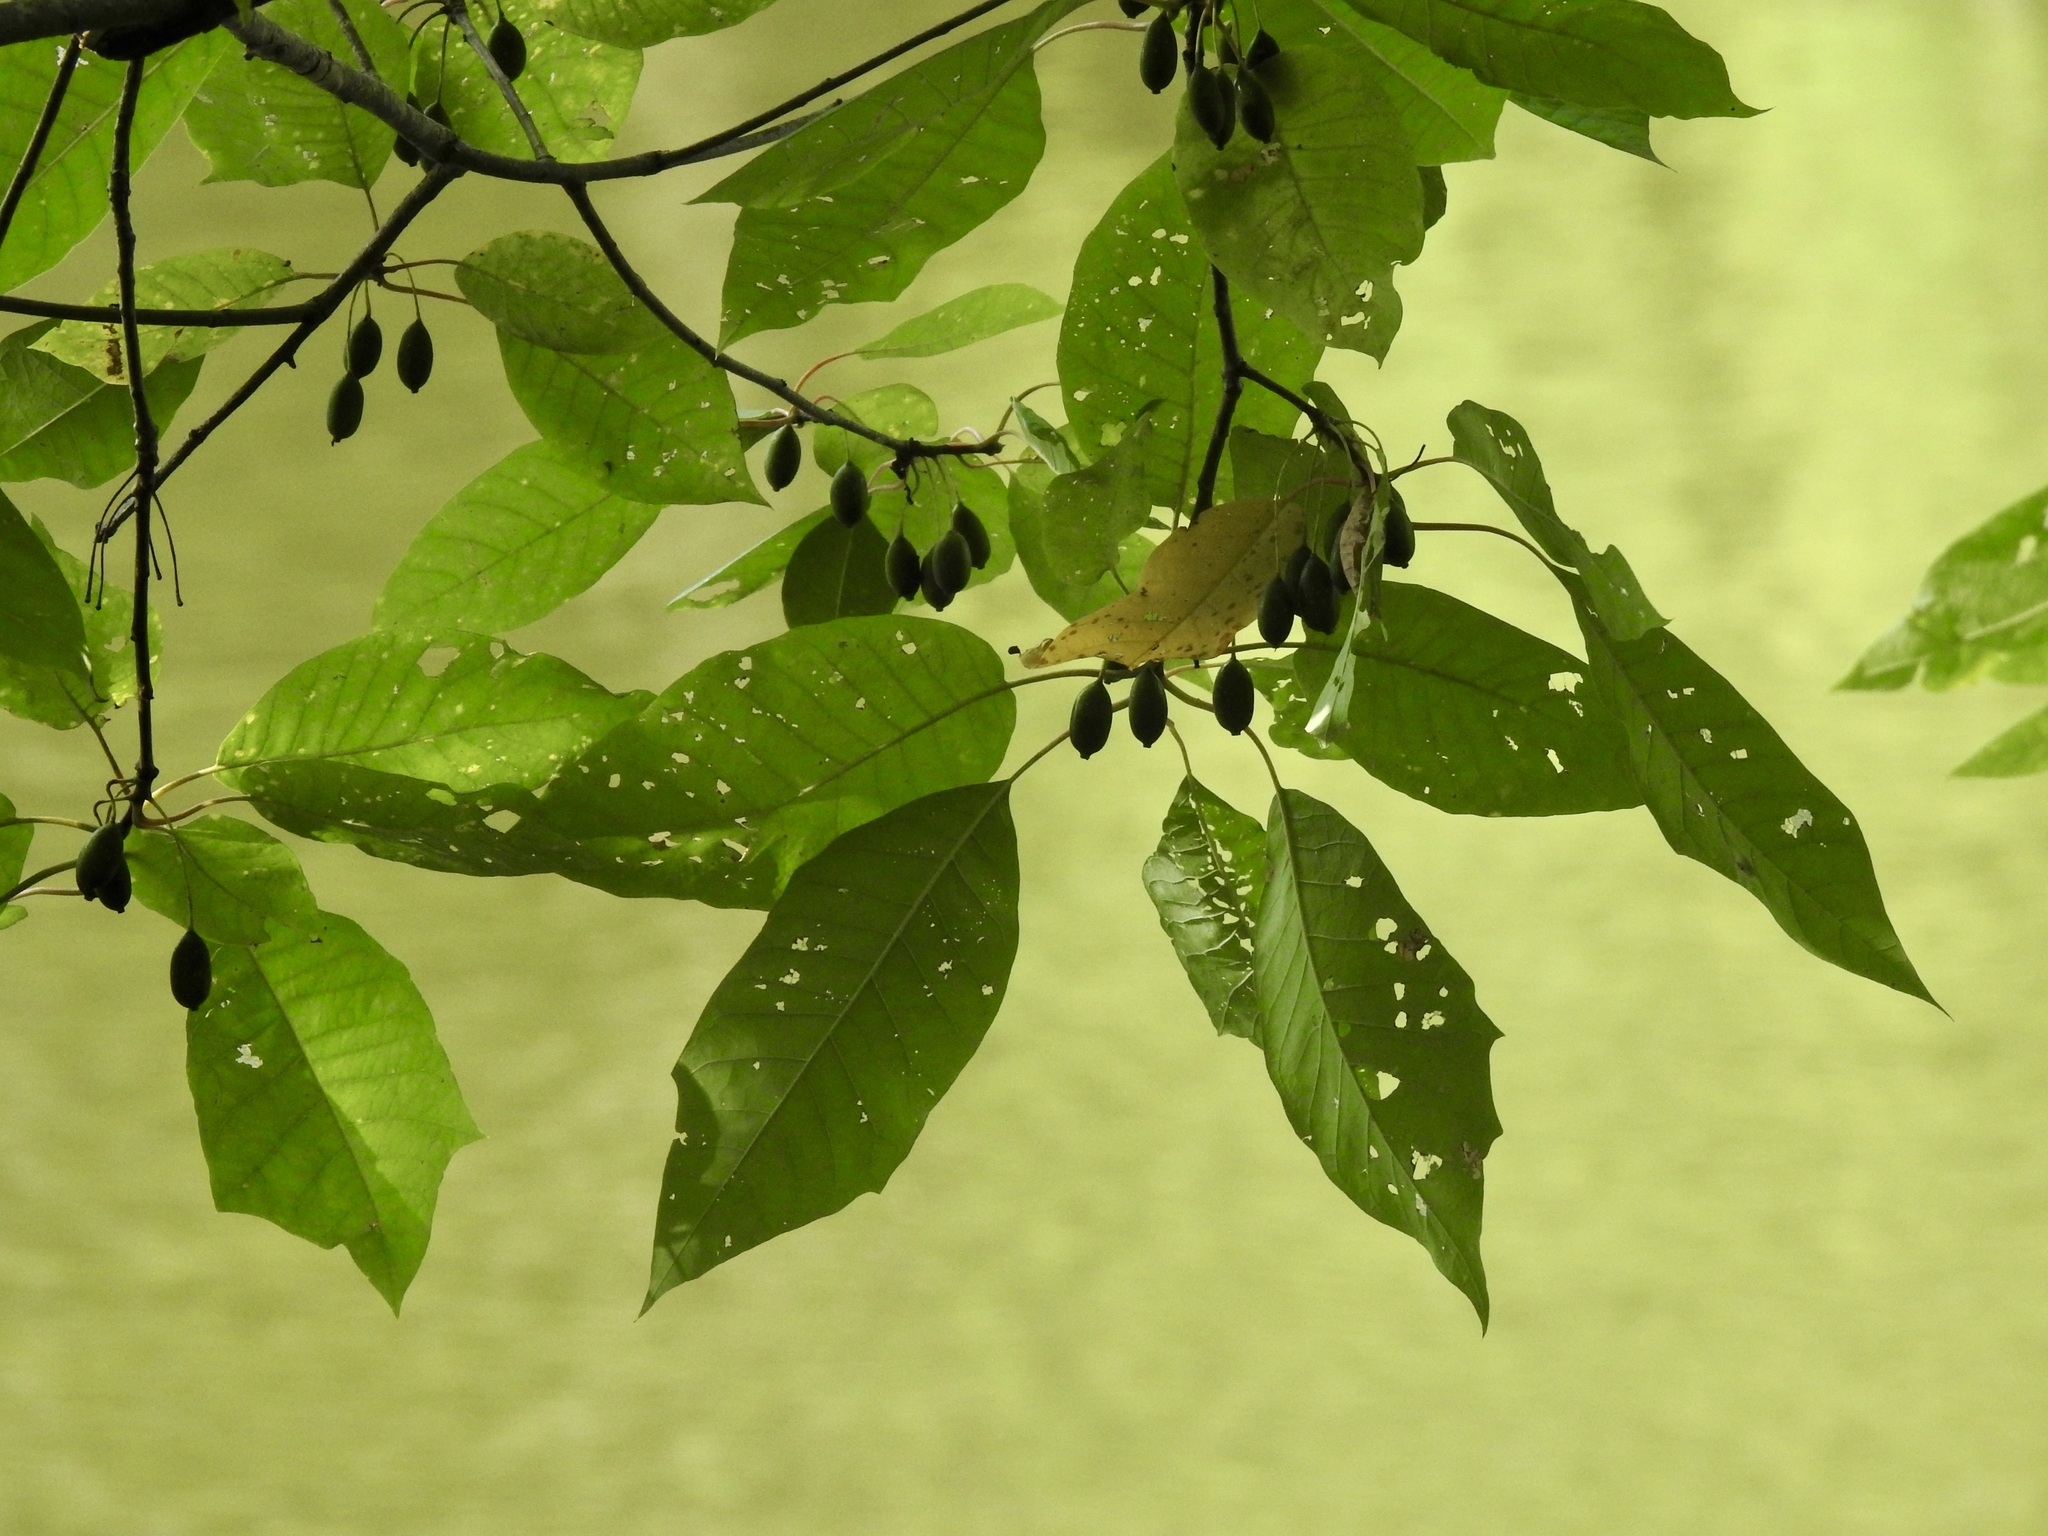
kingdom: Plantae
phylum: Tracheophyta
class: Magnoliopsida
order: Cornales
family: Nyssaceae
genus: Nyssa
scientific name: Nyssa aquatica
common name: Swamp tupelo
